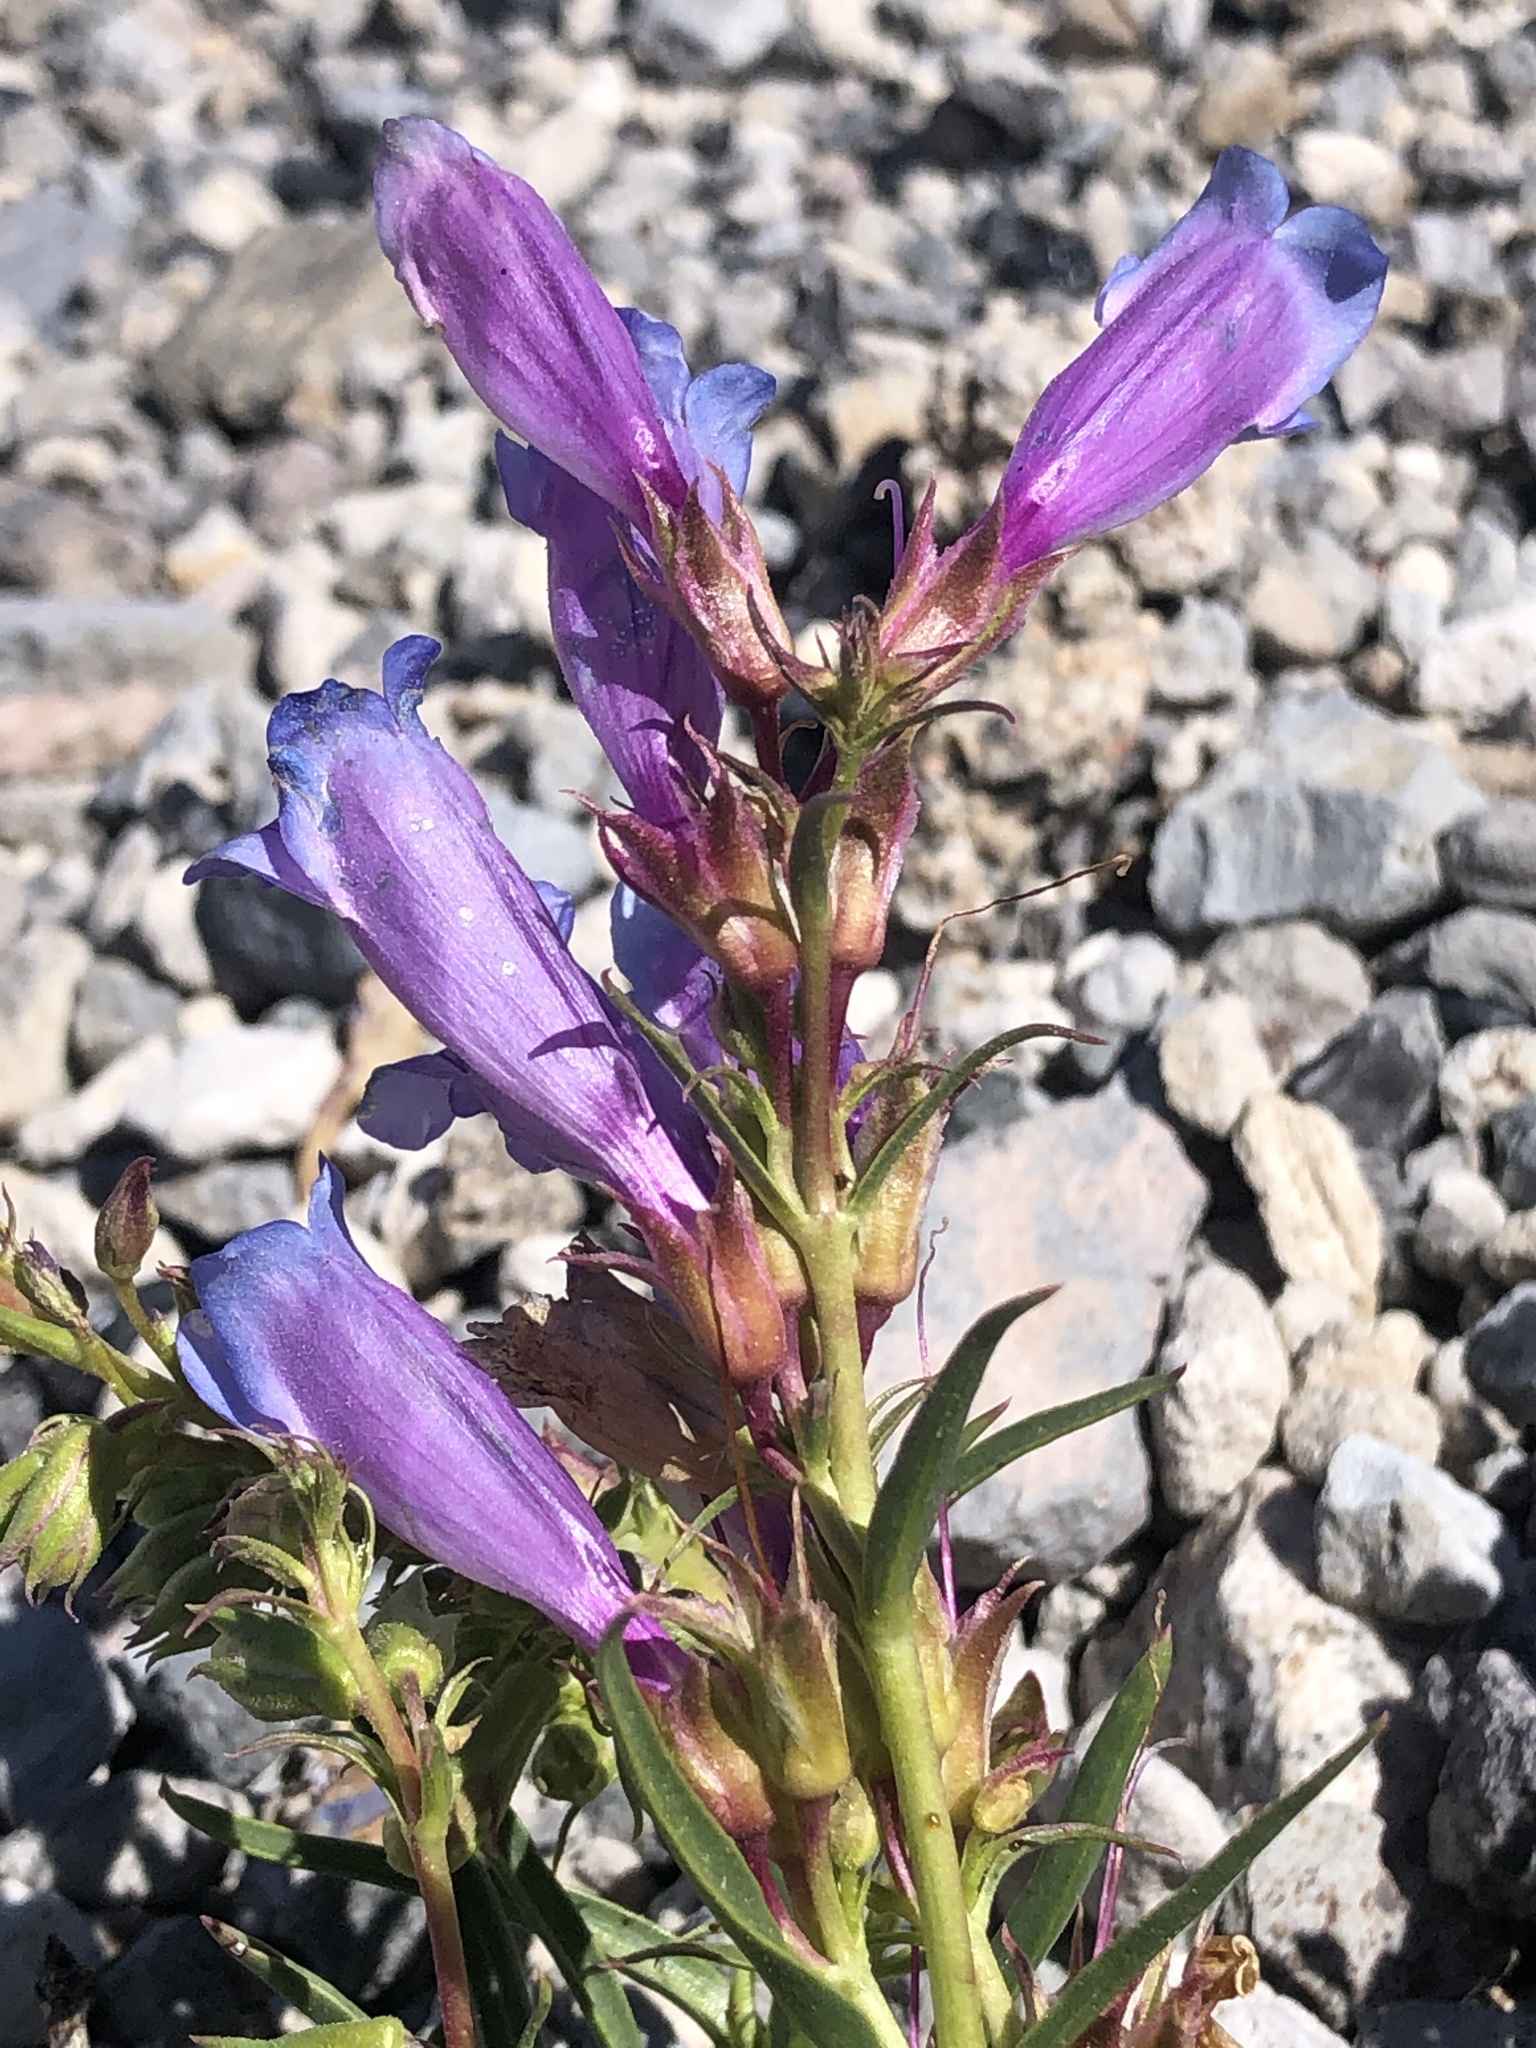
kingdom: Plantae
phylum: Tracheophyta
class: Magnoliopsida
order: Lamiales
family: Plantaginaceae
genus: Penstemon
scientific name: Penstemon speciosus
